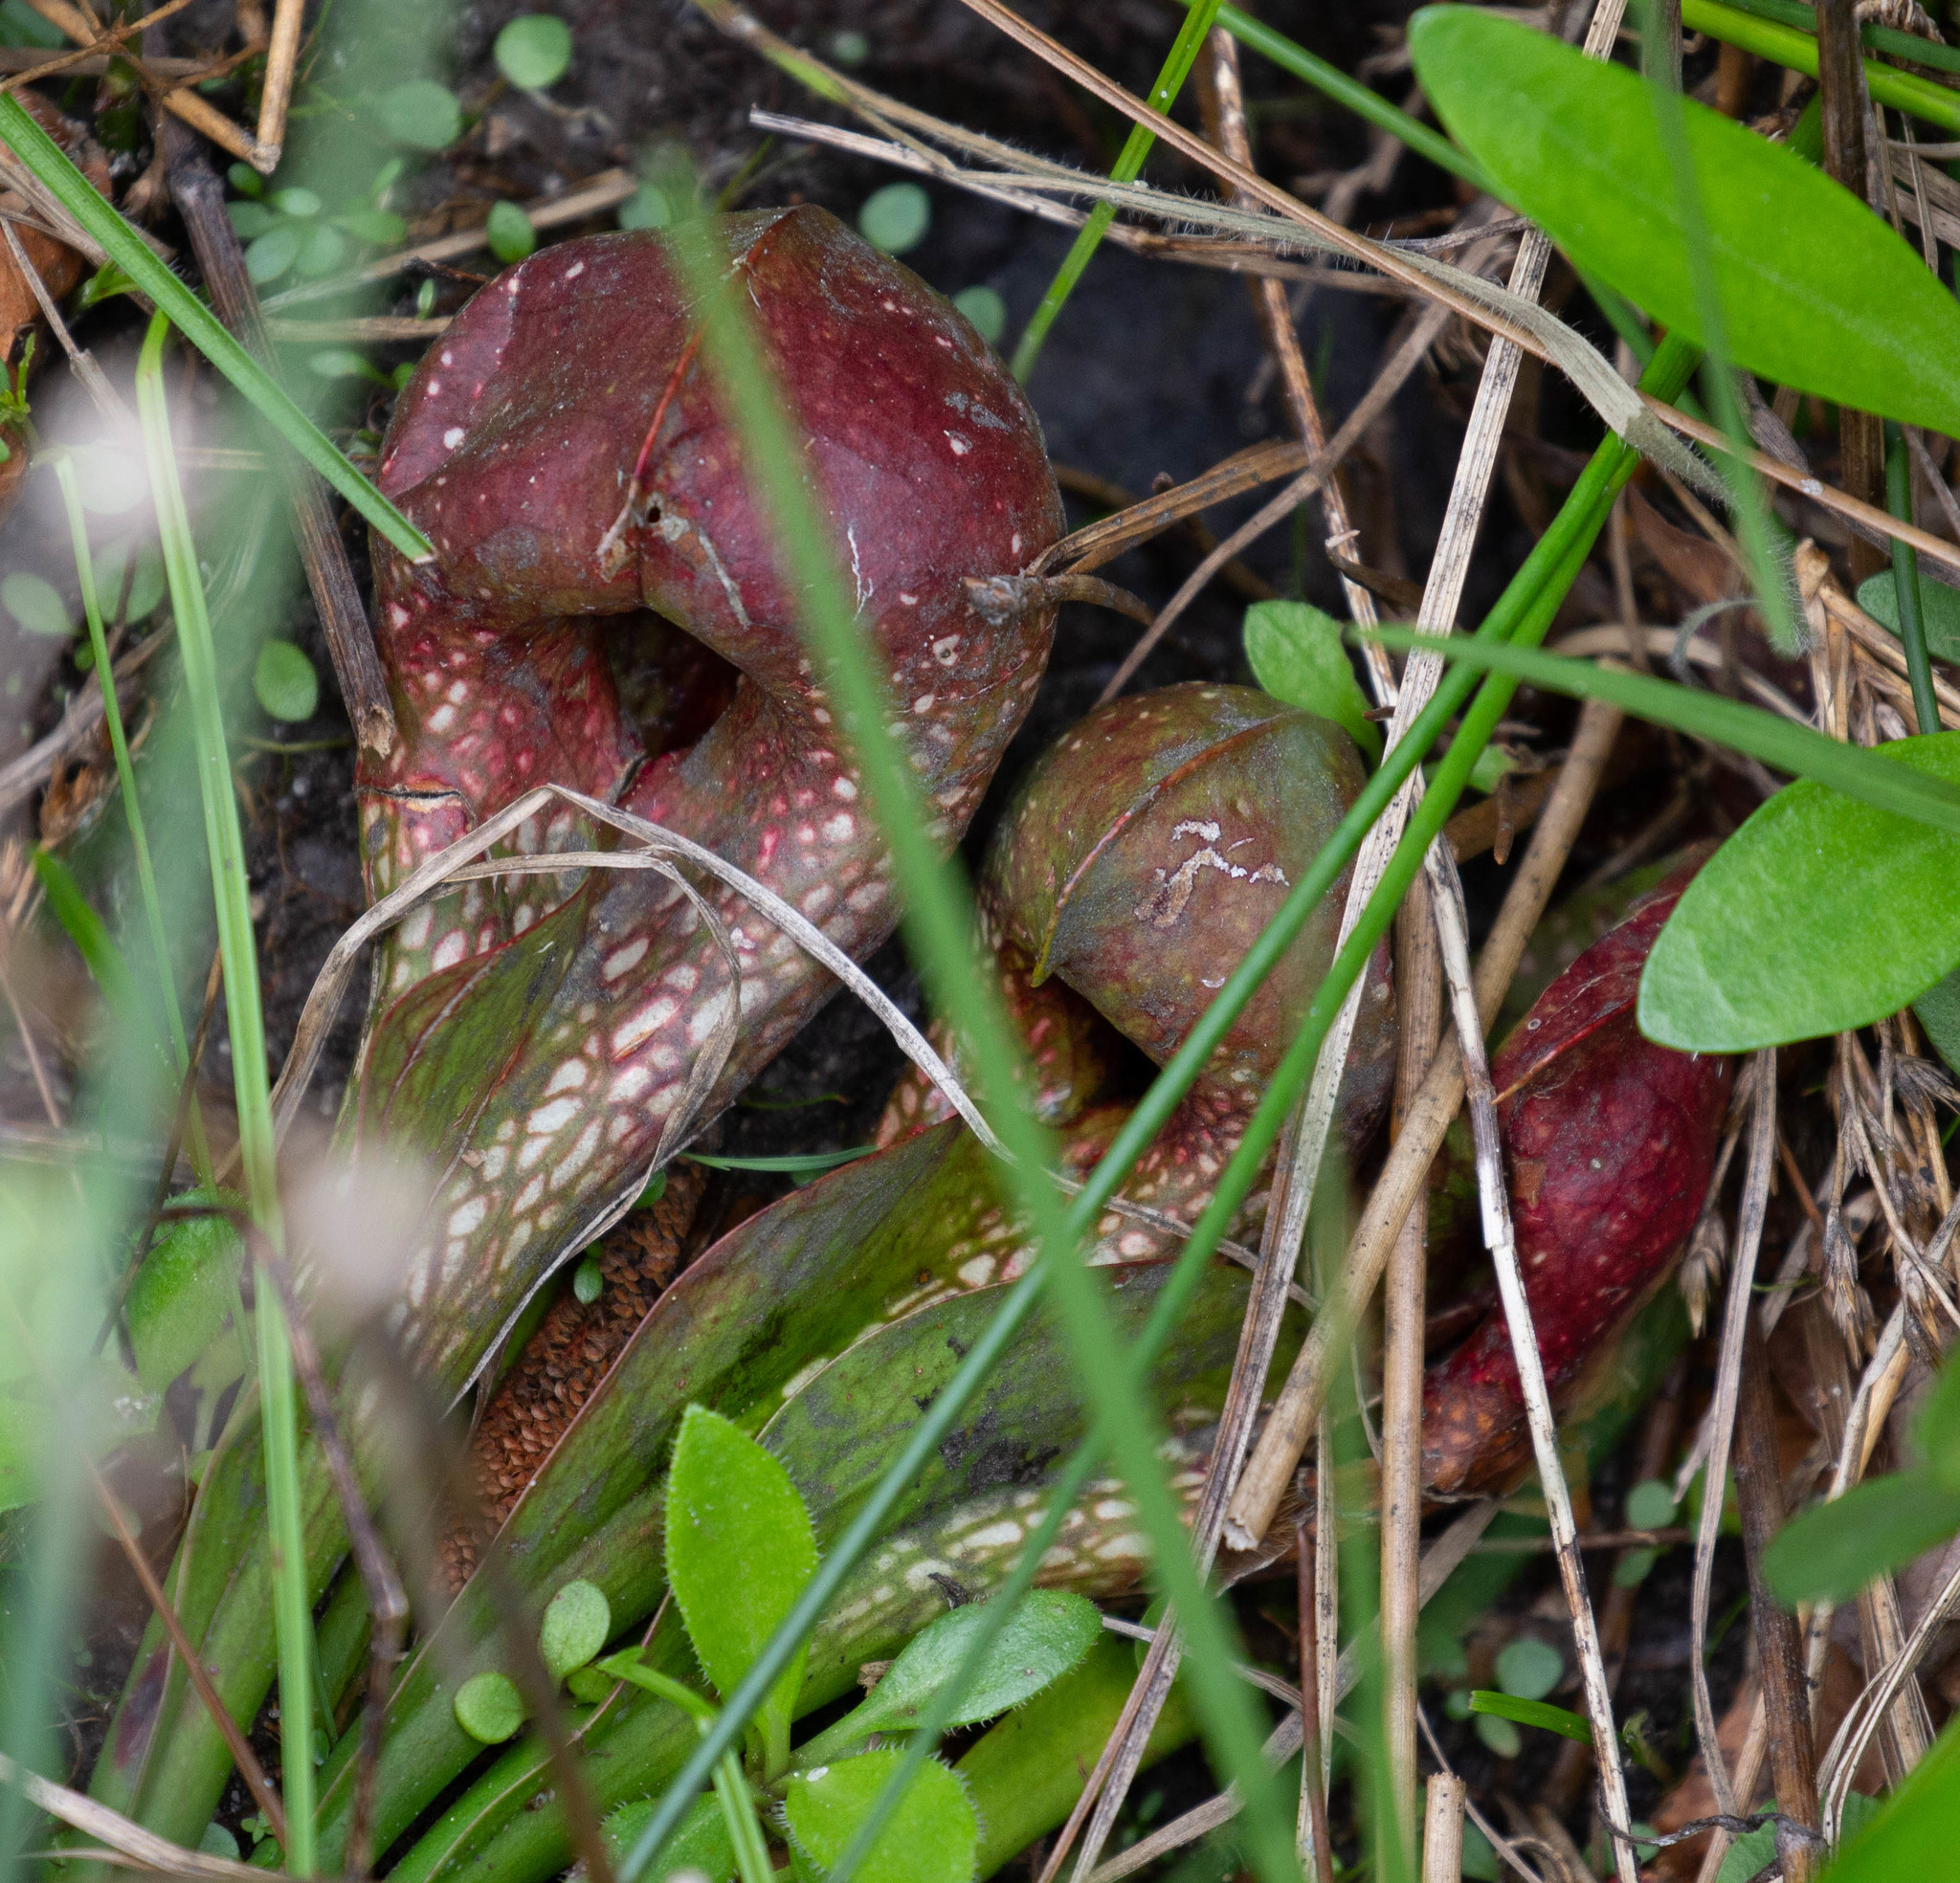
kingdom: Plantae
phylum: Tracheophyta
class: Magnoliopsida
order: Ericales
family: Sarraceniaceae
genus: Sarracenia
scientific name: Sarracenia psittacina
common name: Parrot pitcherplant
